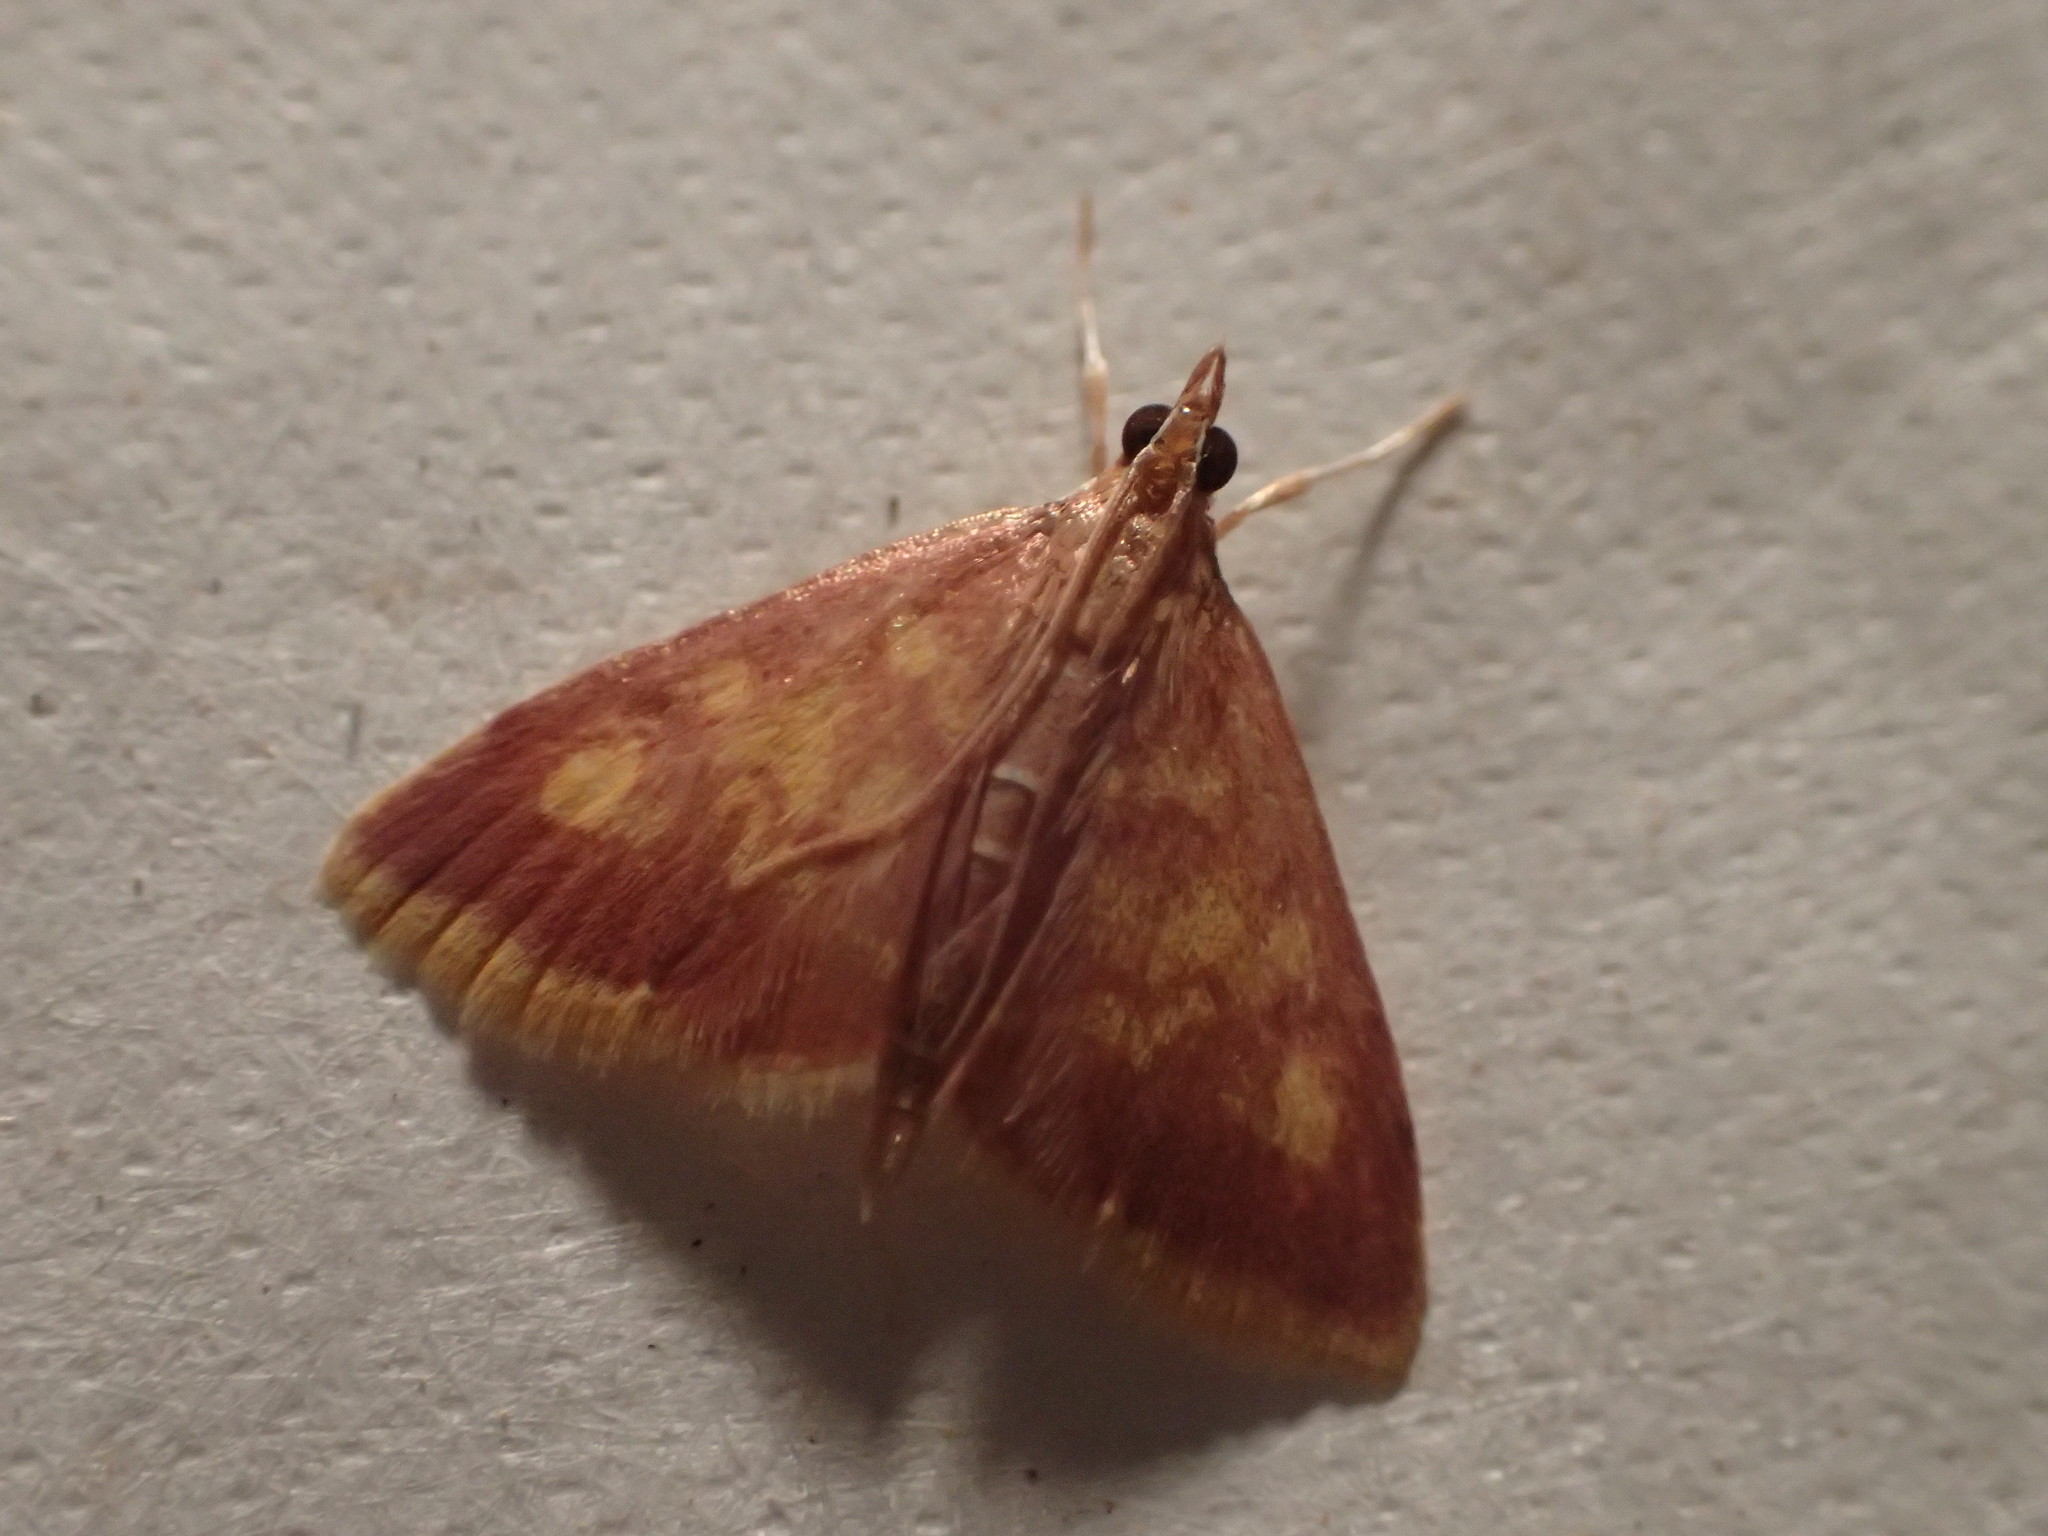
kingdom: Animalia
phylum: Arthropoda
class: Insecta
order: Lepidoptera
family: Crambidae
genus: Pyrausta
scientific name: Pyrausta acrionalis
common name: Mint-loving pyrausta moth
